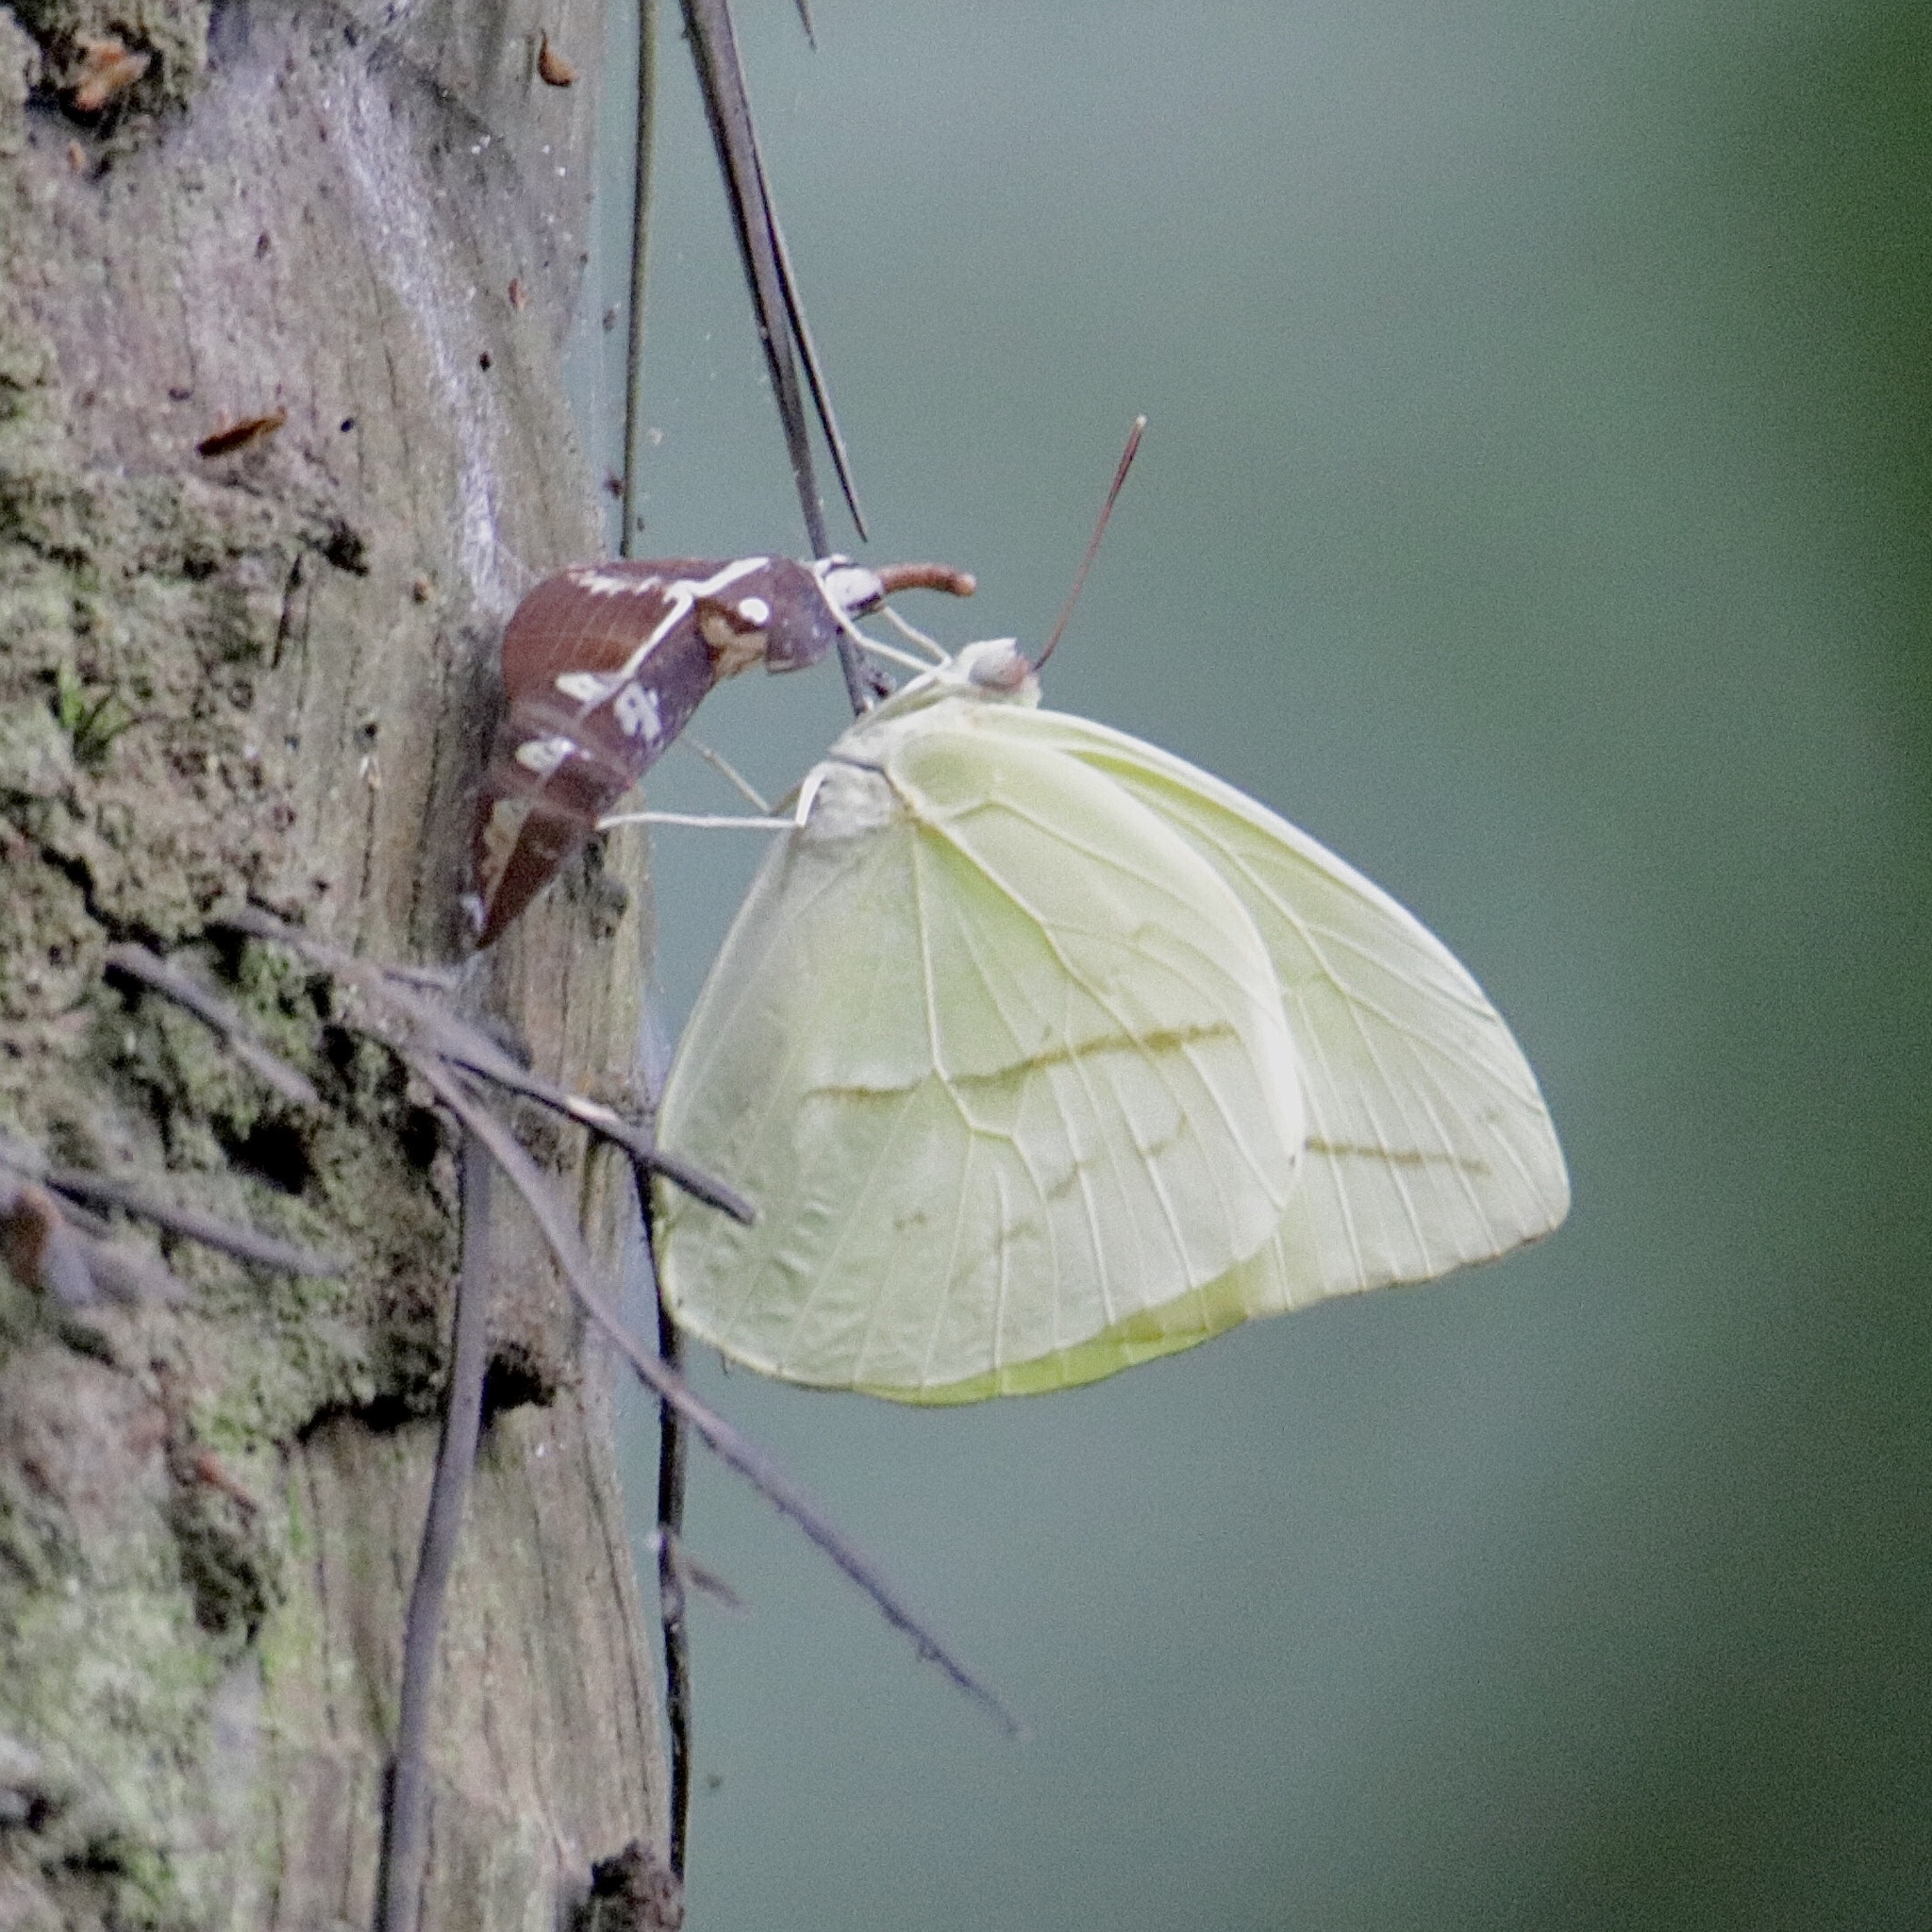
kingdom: Animalia
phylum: Arthropoda
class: Insecta
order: Lepidoptera
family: Pieridae
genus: Rhabdodryas
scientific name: Rhabdodryas trite
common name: Straight-lined sulphur
